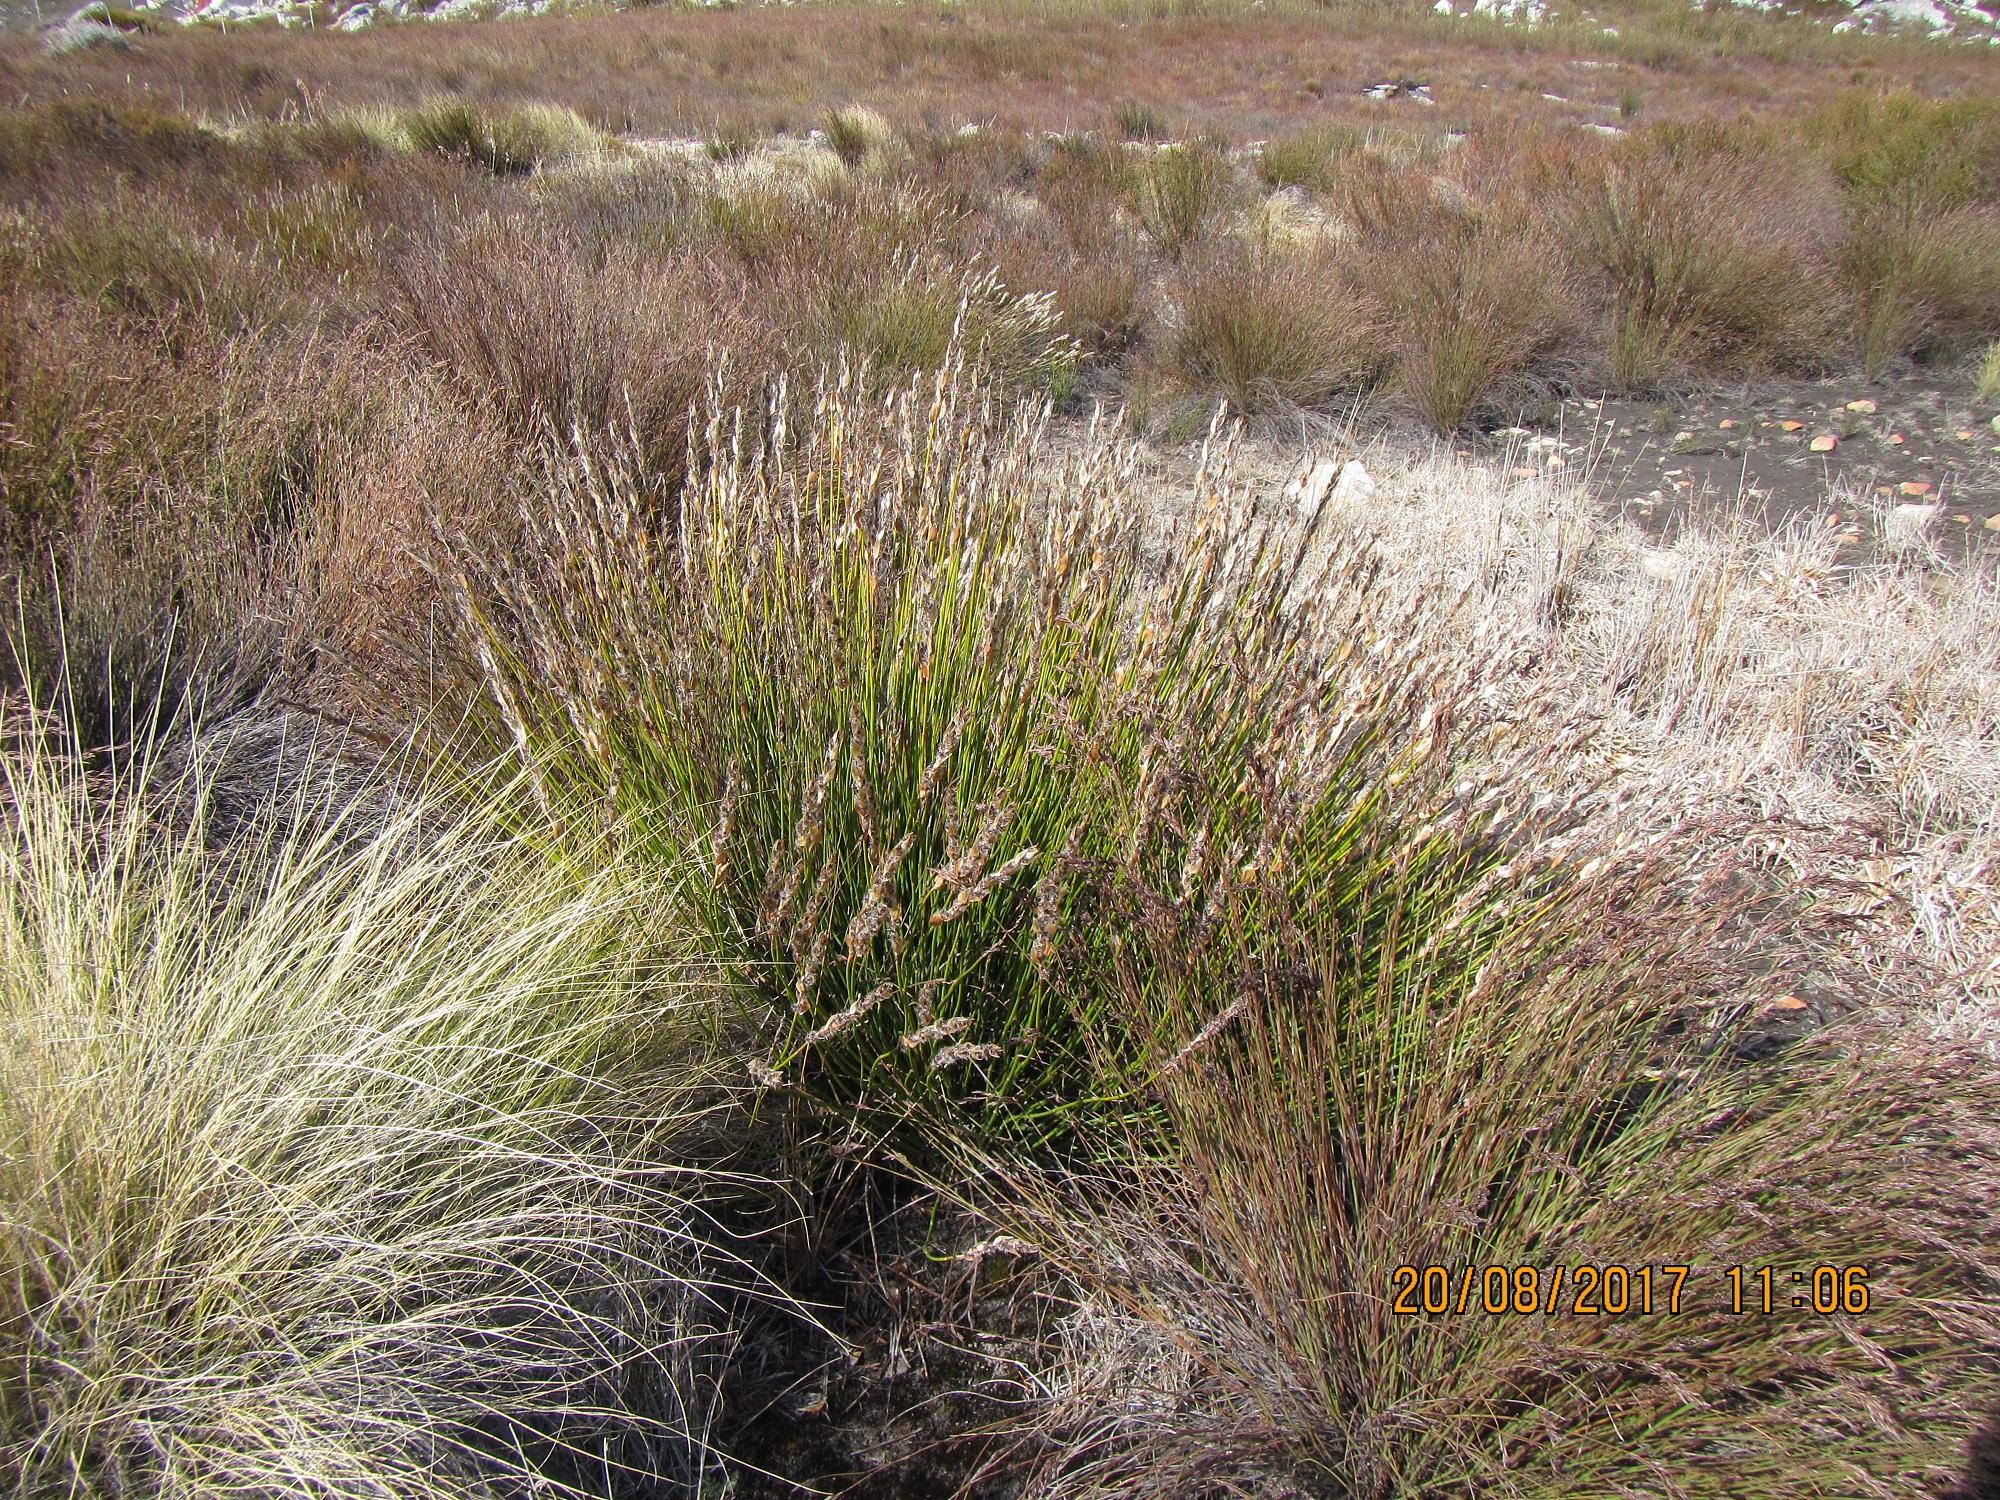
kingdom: Plantae
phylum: Tracheophyta
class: Liliopsida
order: Poales
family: Restionaceae
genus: Askidiosperma
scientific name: Askidiosperma chartaceum
